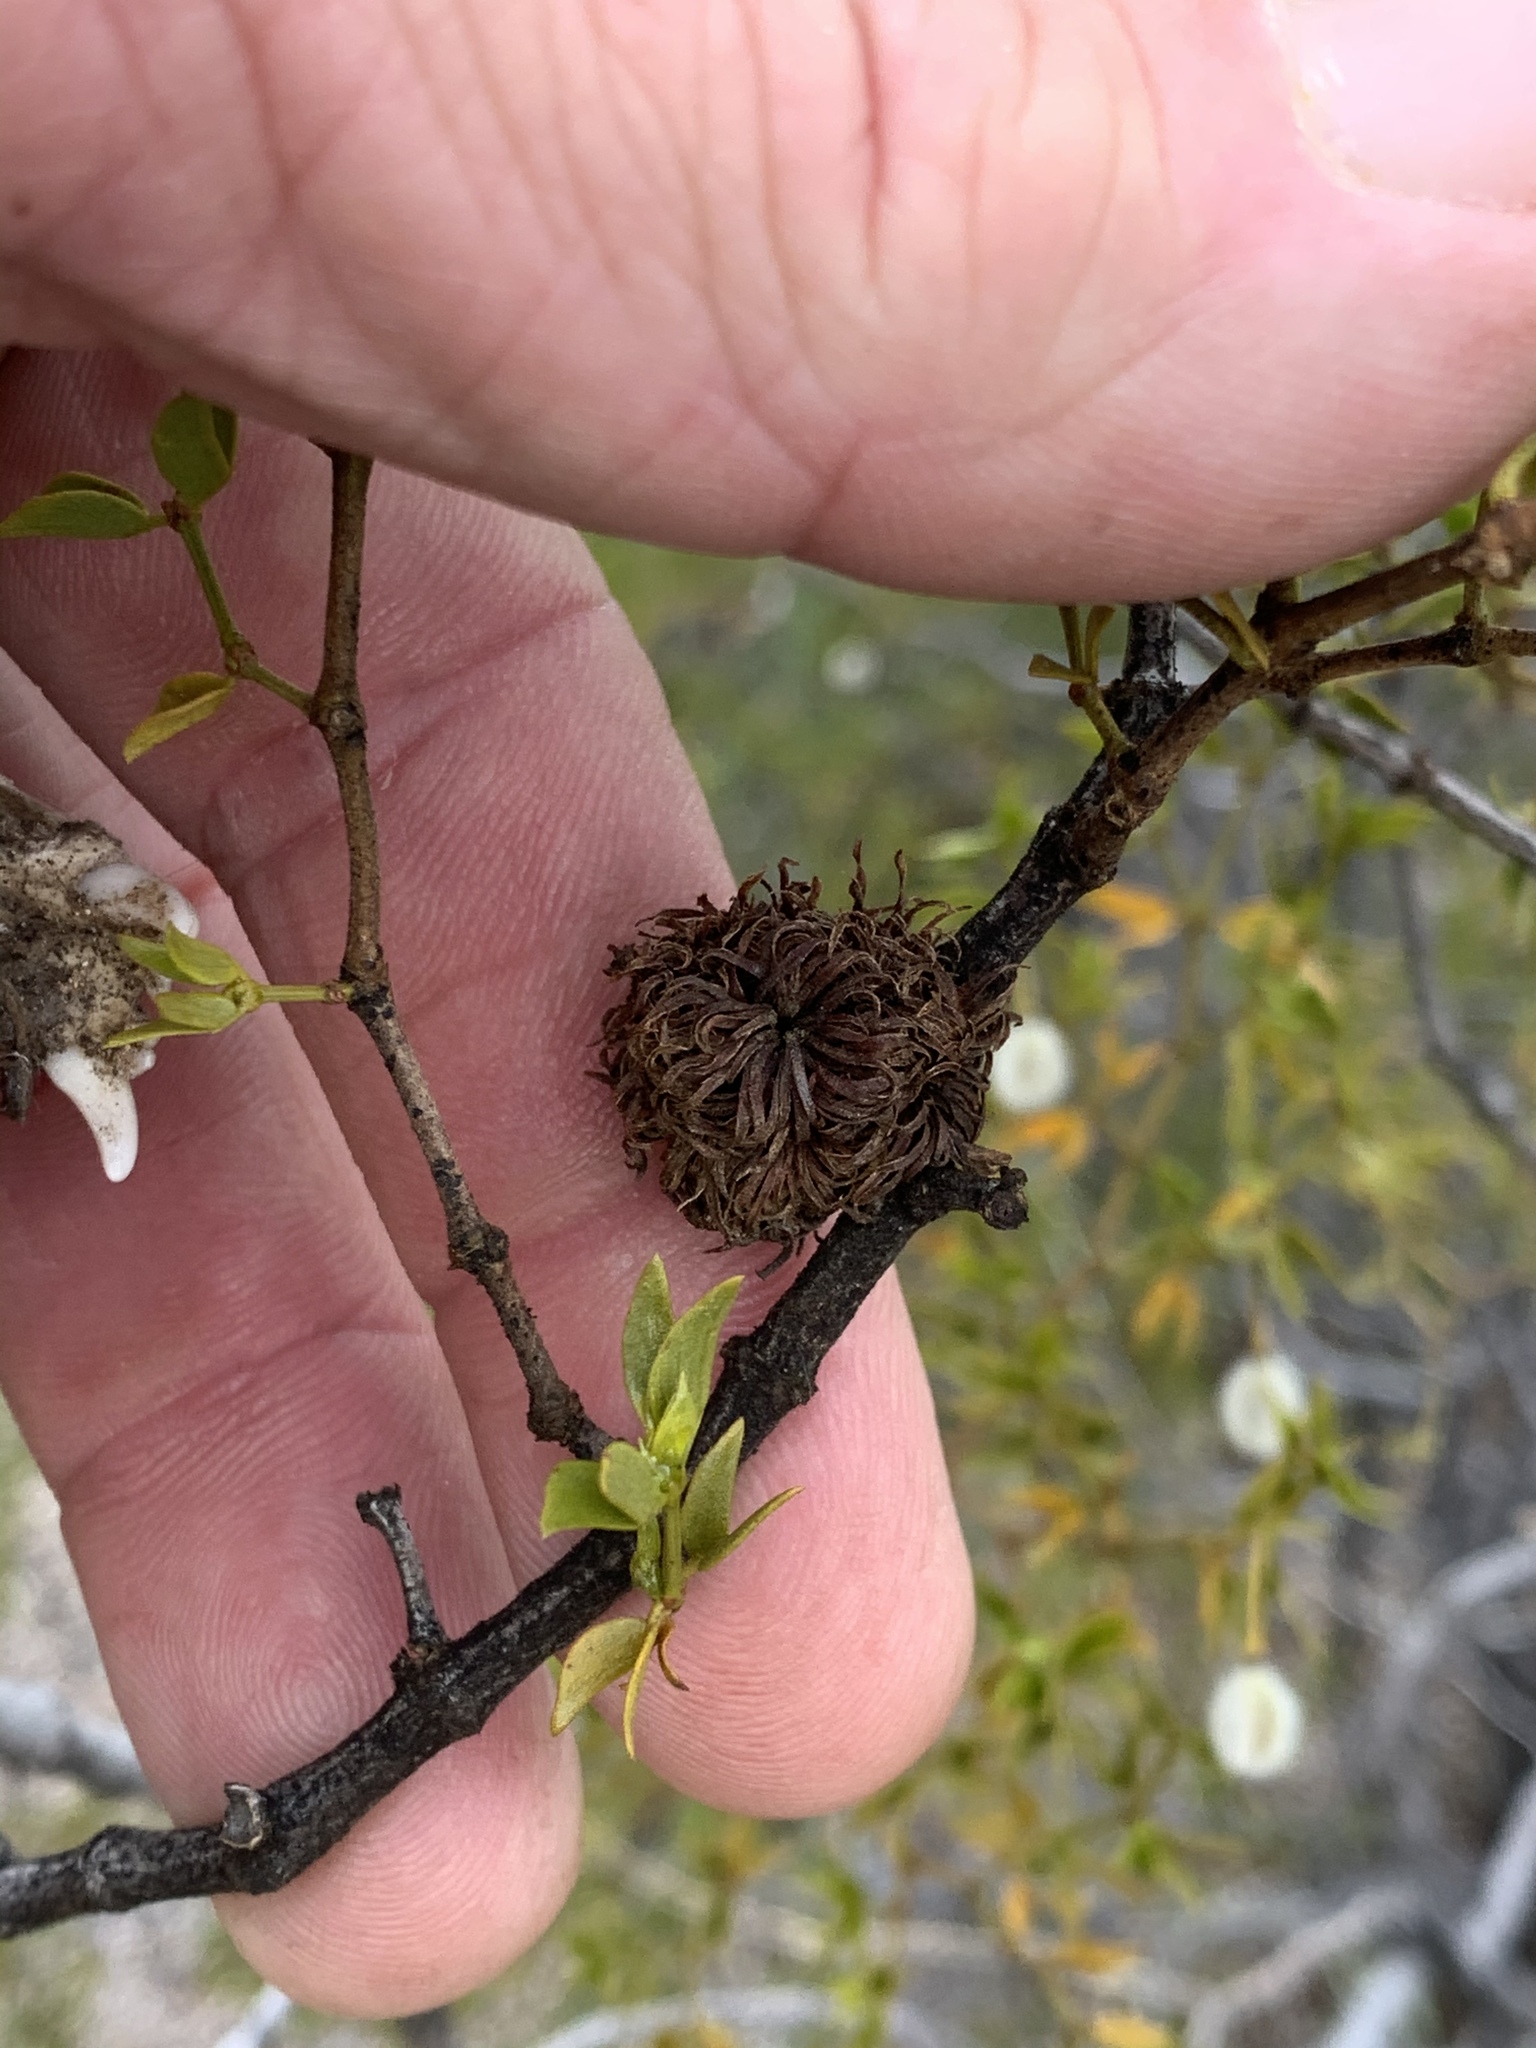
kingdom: Animalia
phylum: Arthropoda
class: Insecta
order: Diptera
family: Cecidomyiidae
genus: Asphondylia
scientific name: Asphondylia auripila
